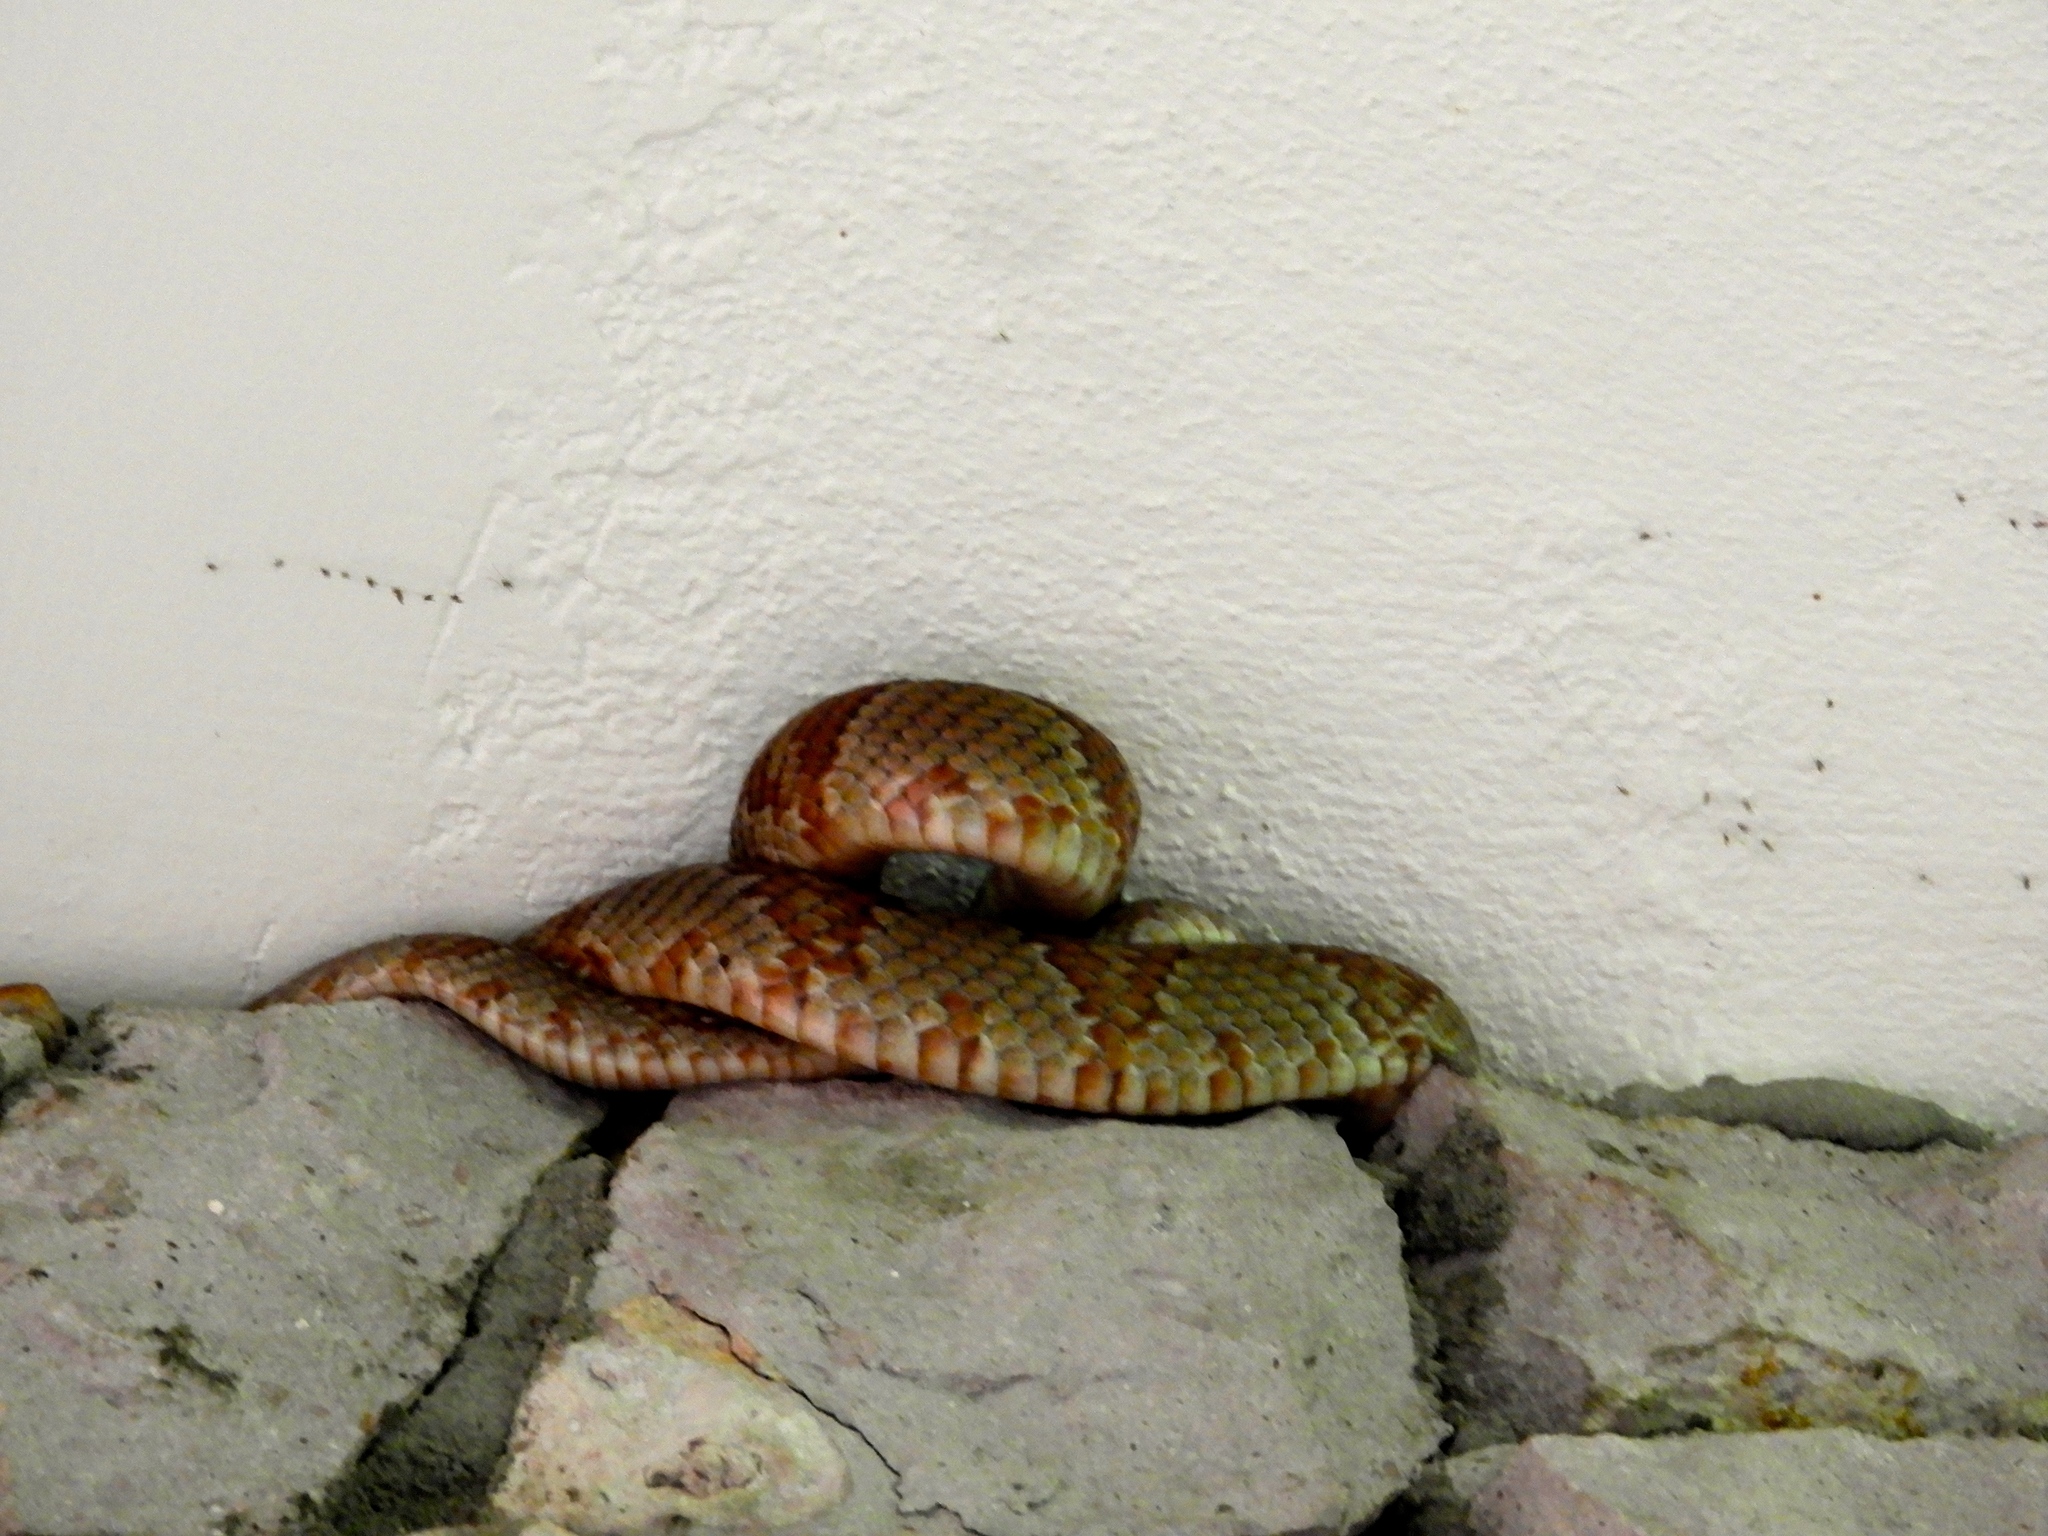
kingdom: Animalia
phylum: Chordata
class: Squamata
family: Colubridae
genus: Trimorphodon
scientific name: Trimorphodon paucimaculatus
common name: Sinaloan lyresnake
